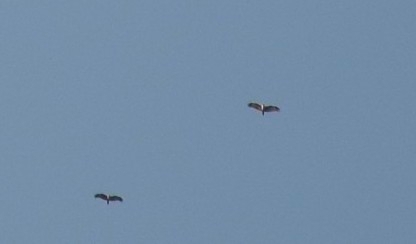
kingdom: Animalia
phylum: Chordata
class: Aves
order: Accipitriformes
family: Accipitridae
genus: Haliastur
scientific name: Haliastur indus
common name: Brahminy kite
